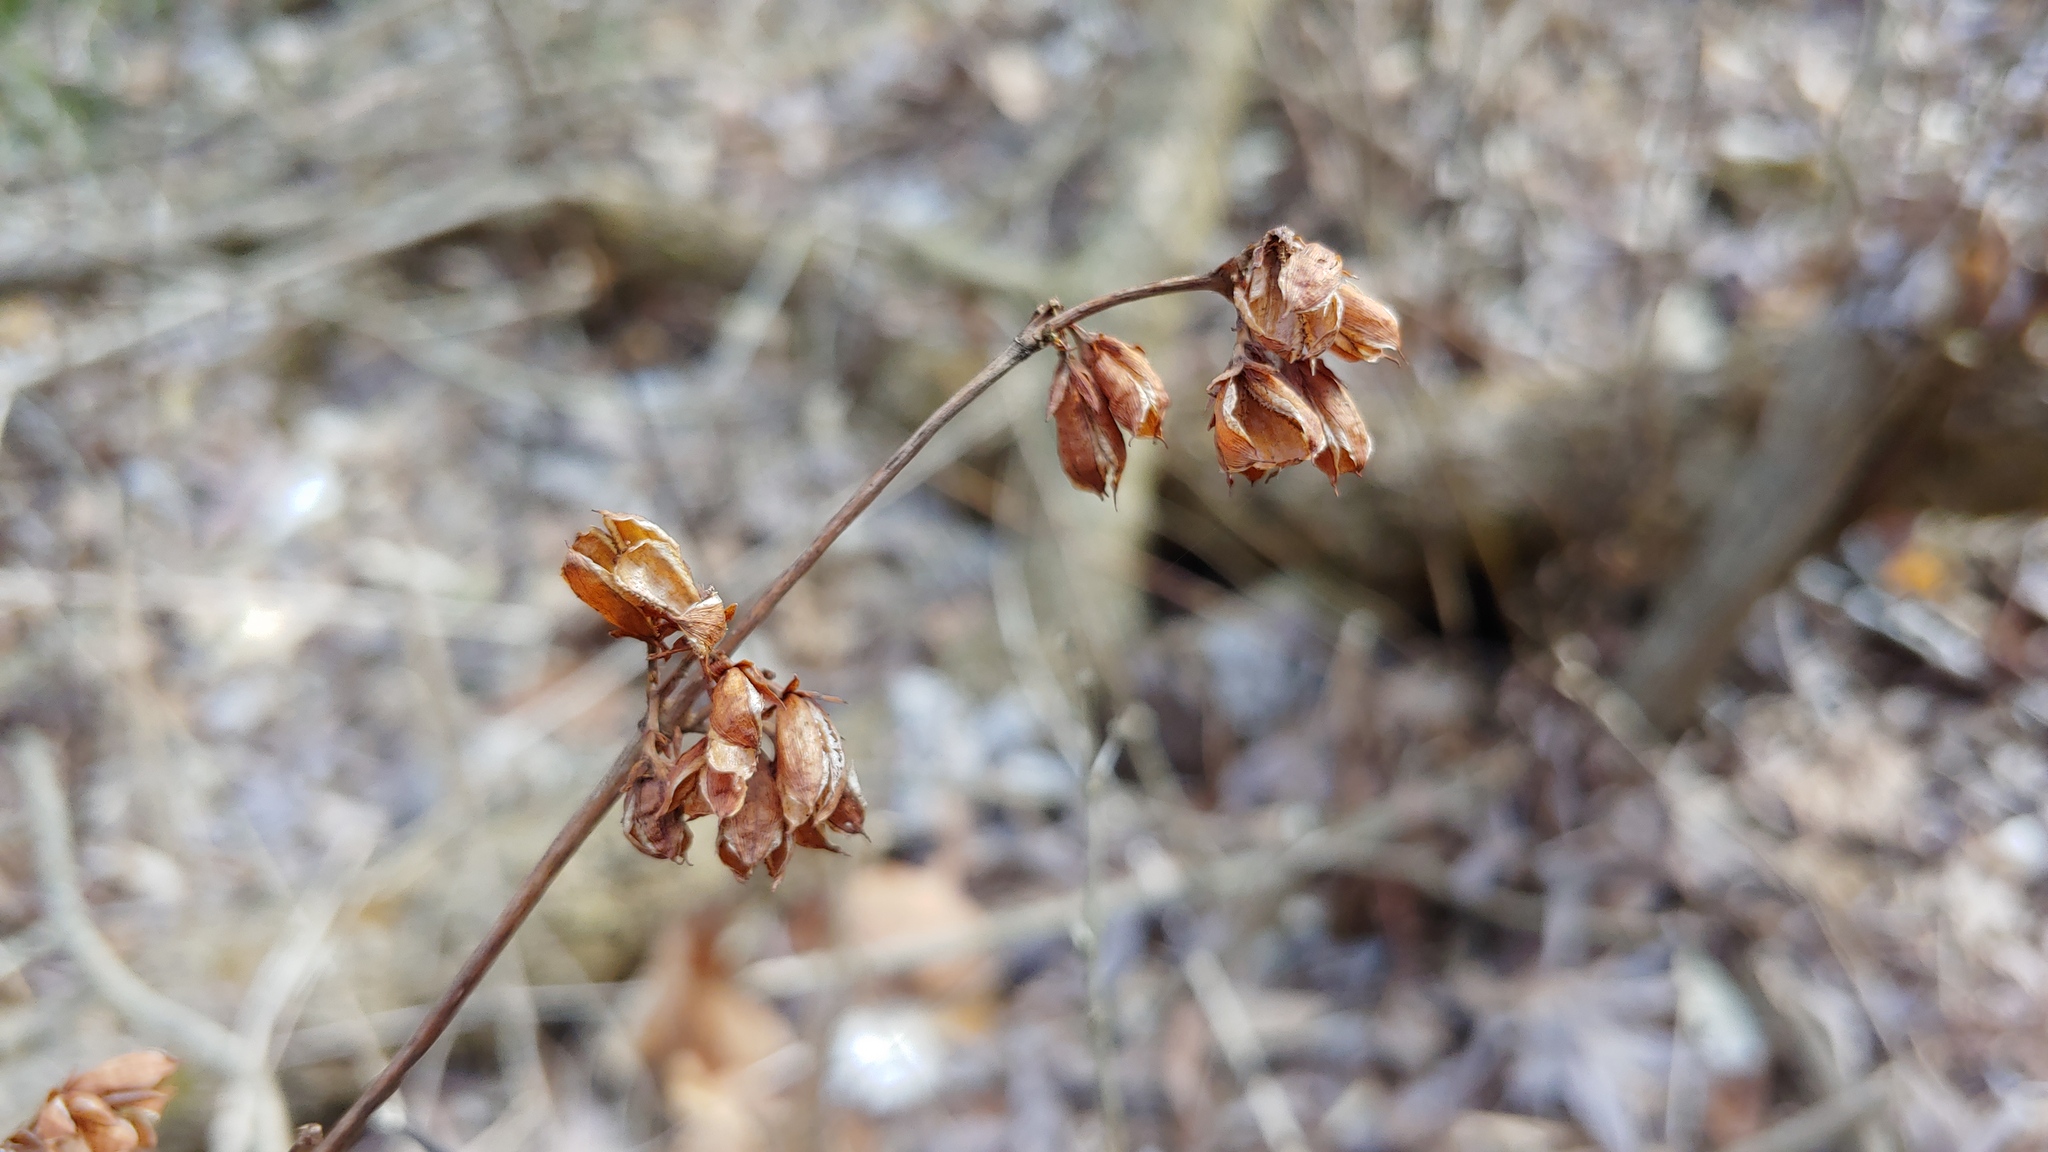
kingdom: Plantae
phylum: Tracheophyta
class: Magnoliopsida
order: Malpighiales
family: Hypericaceae
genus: Triadenum
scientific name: Triadenum tubulosum
